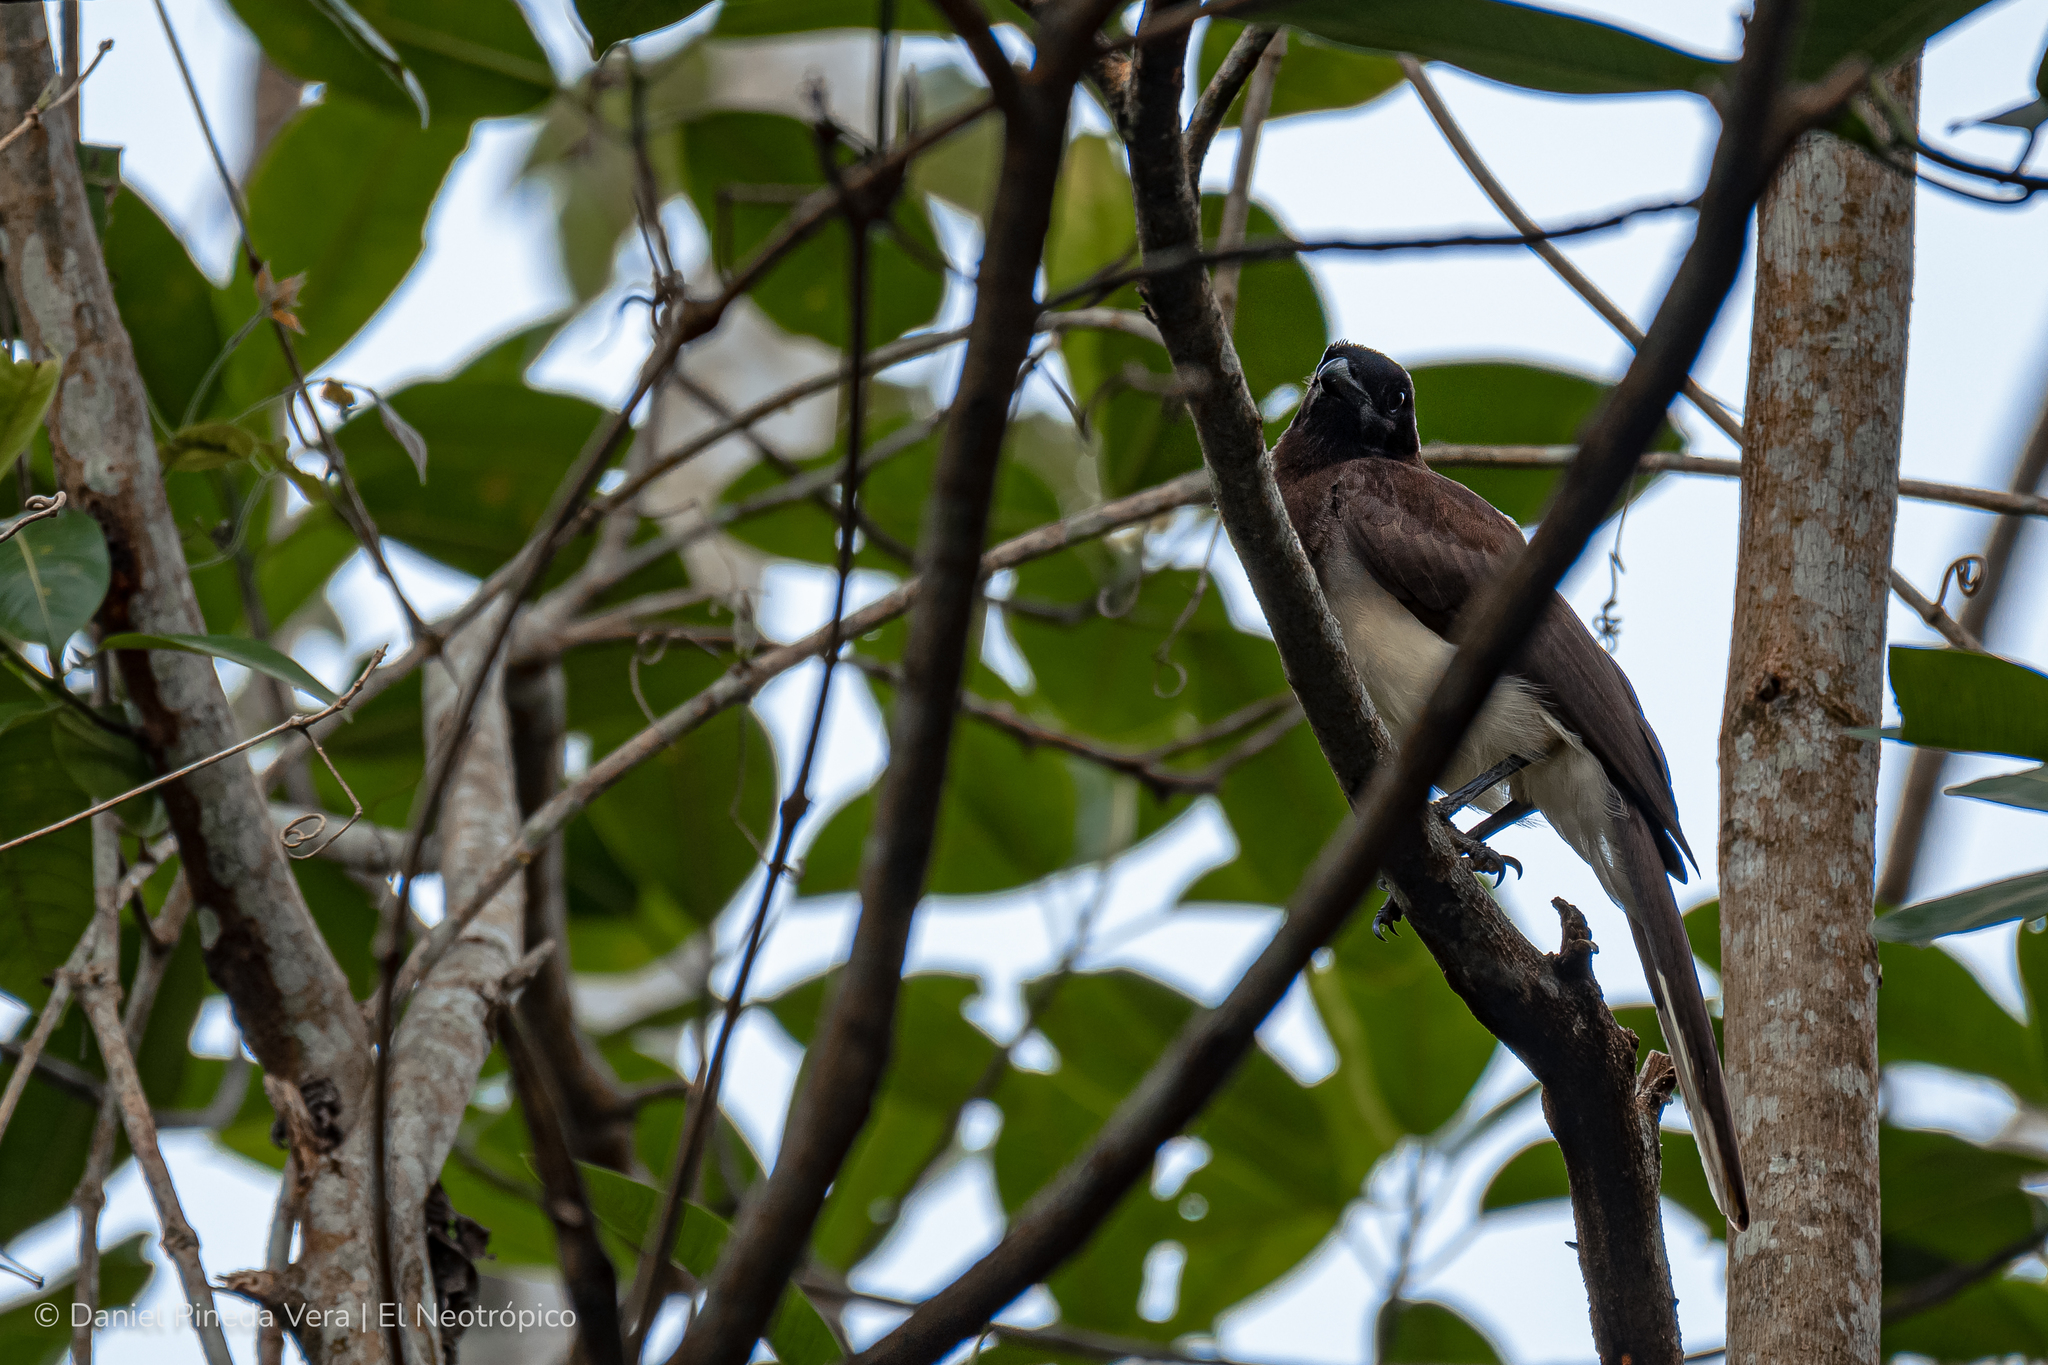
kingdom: Animalia
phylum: Chordata
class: Aves
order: Passeriformes
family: Corvidae
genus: Psilorhinus
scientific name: Psilorhinus morio
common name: Brown jay
